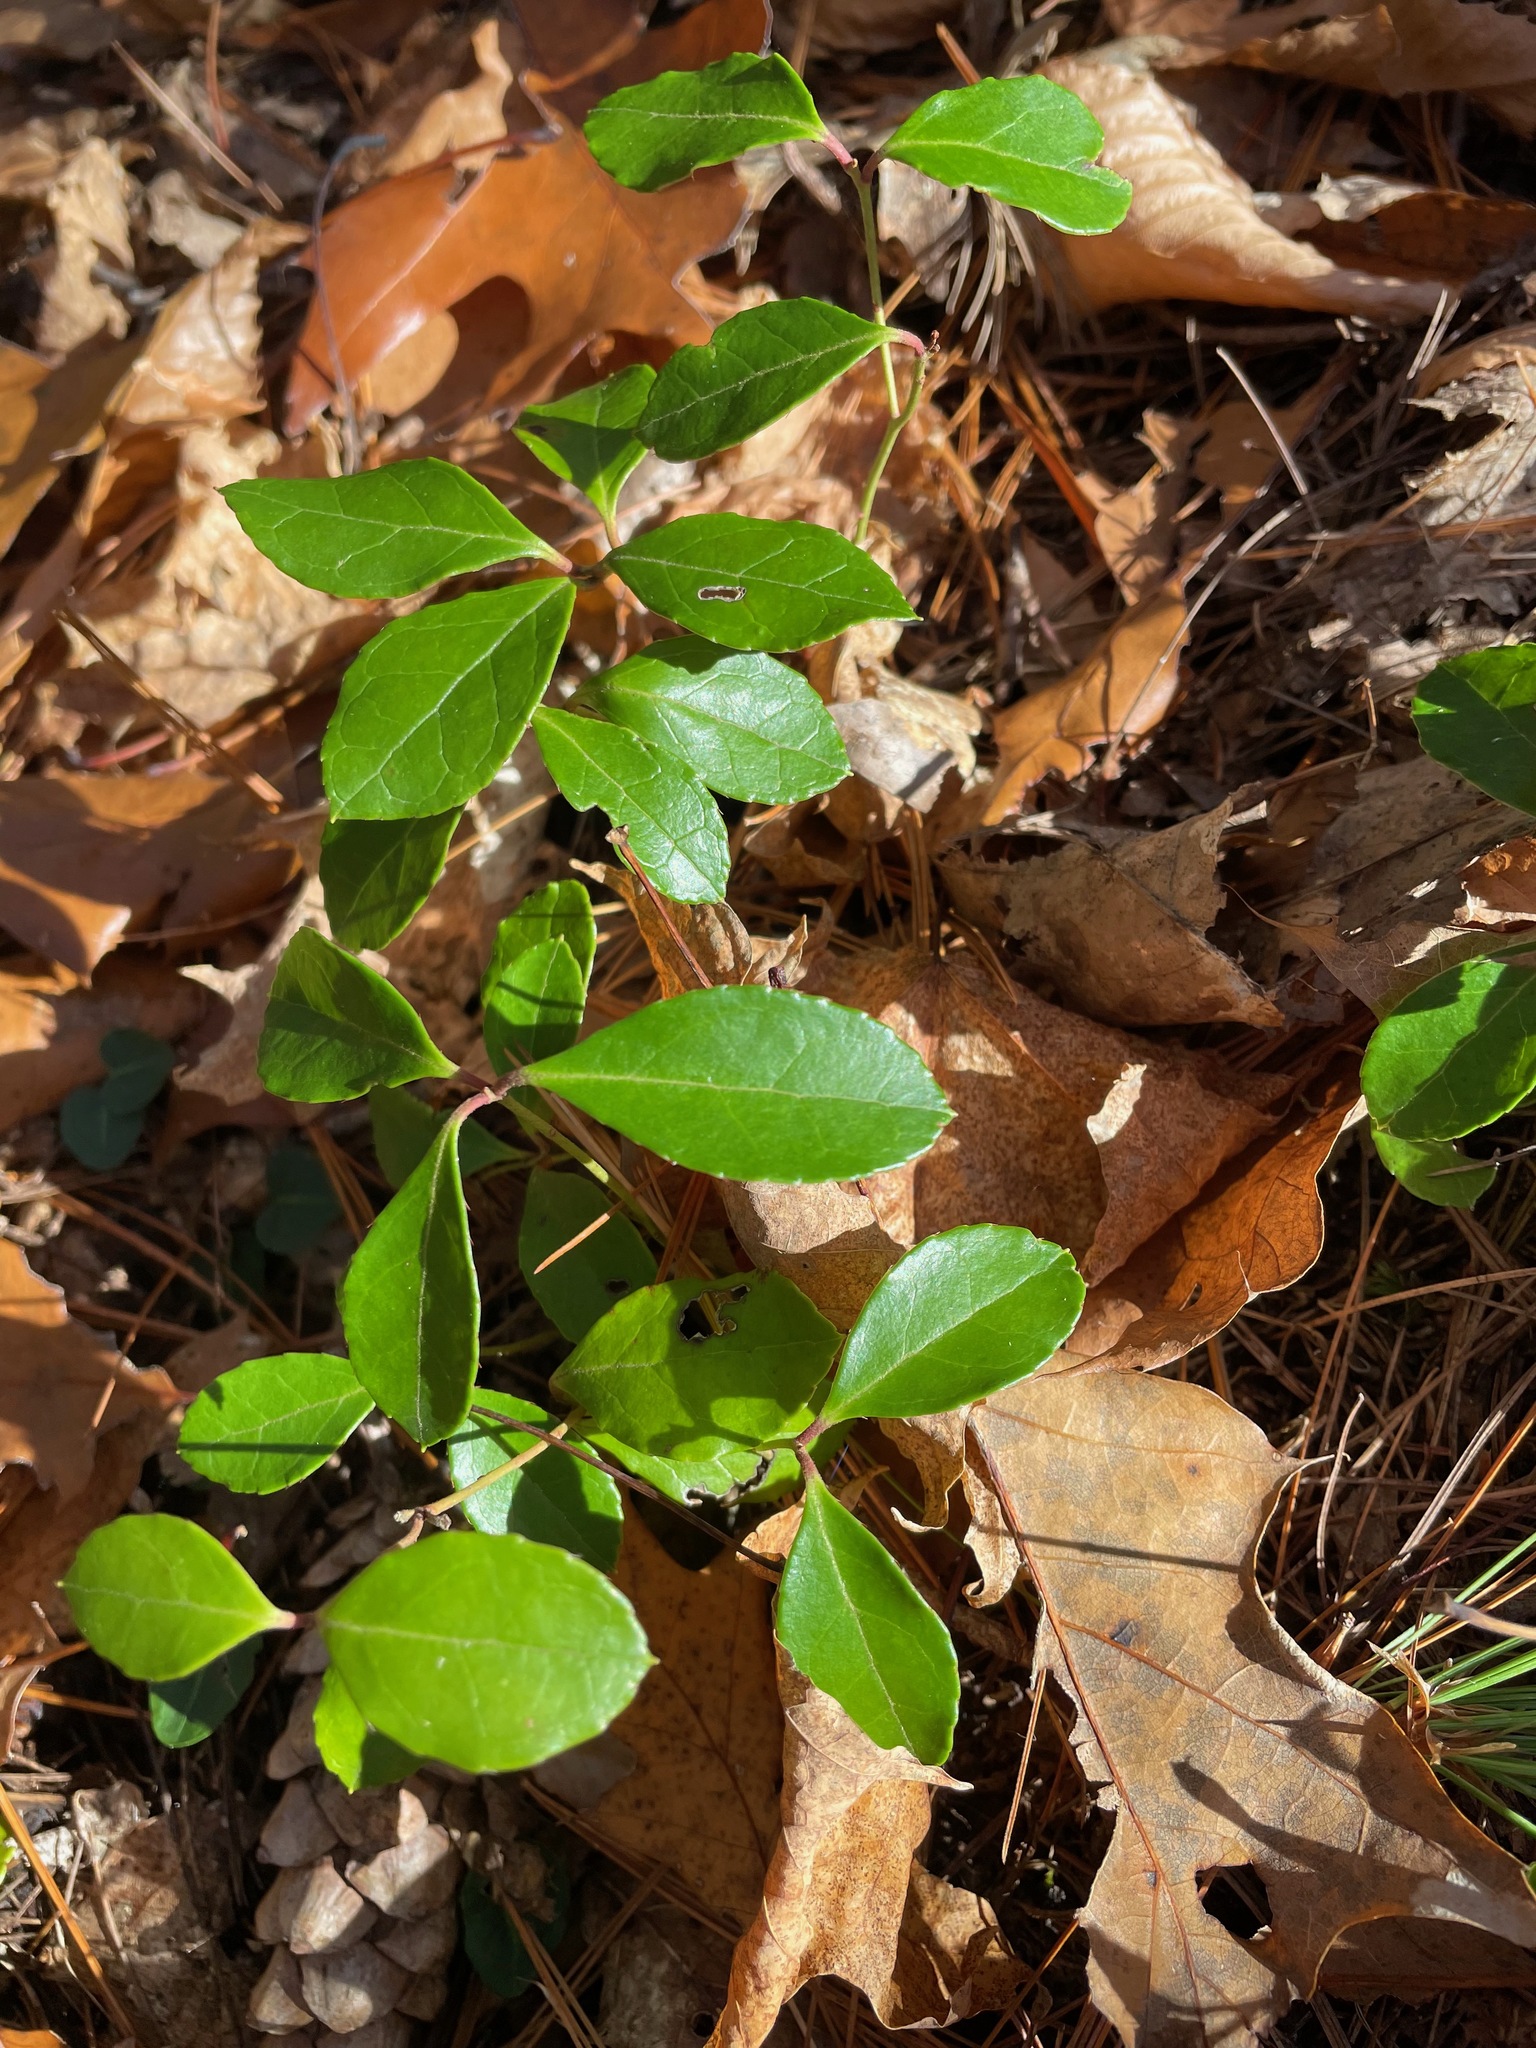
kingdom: Plantae
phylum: Tracheophyta
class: Magnoliopsida
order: Ericales
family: Ericaceae
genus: Gaultheria
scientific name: Gaultheria procumbens
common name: Checkerberry
